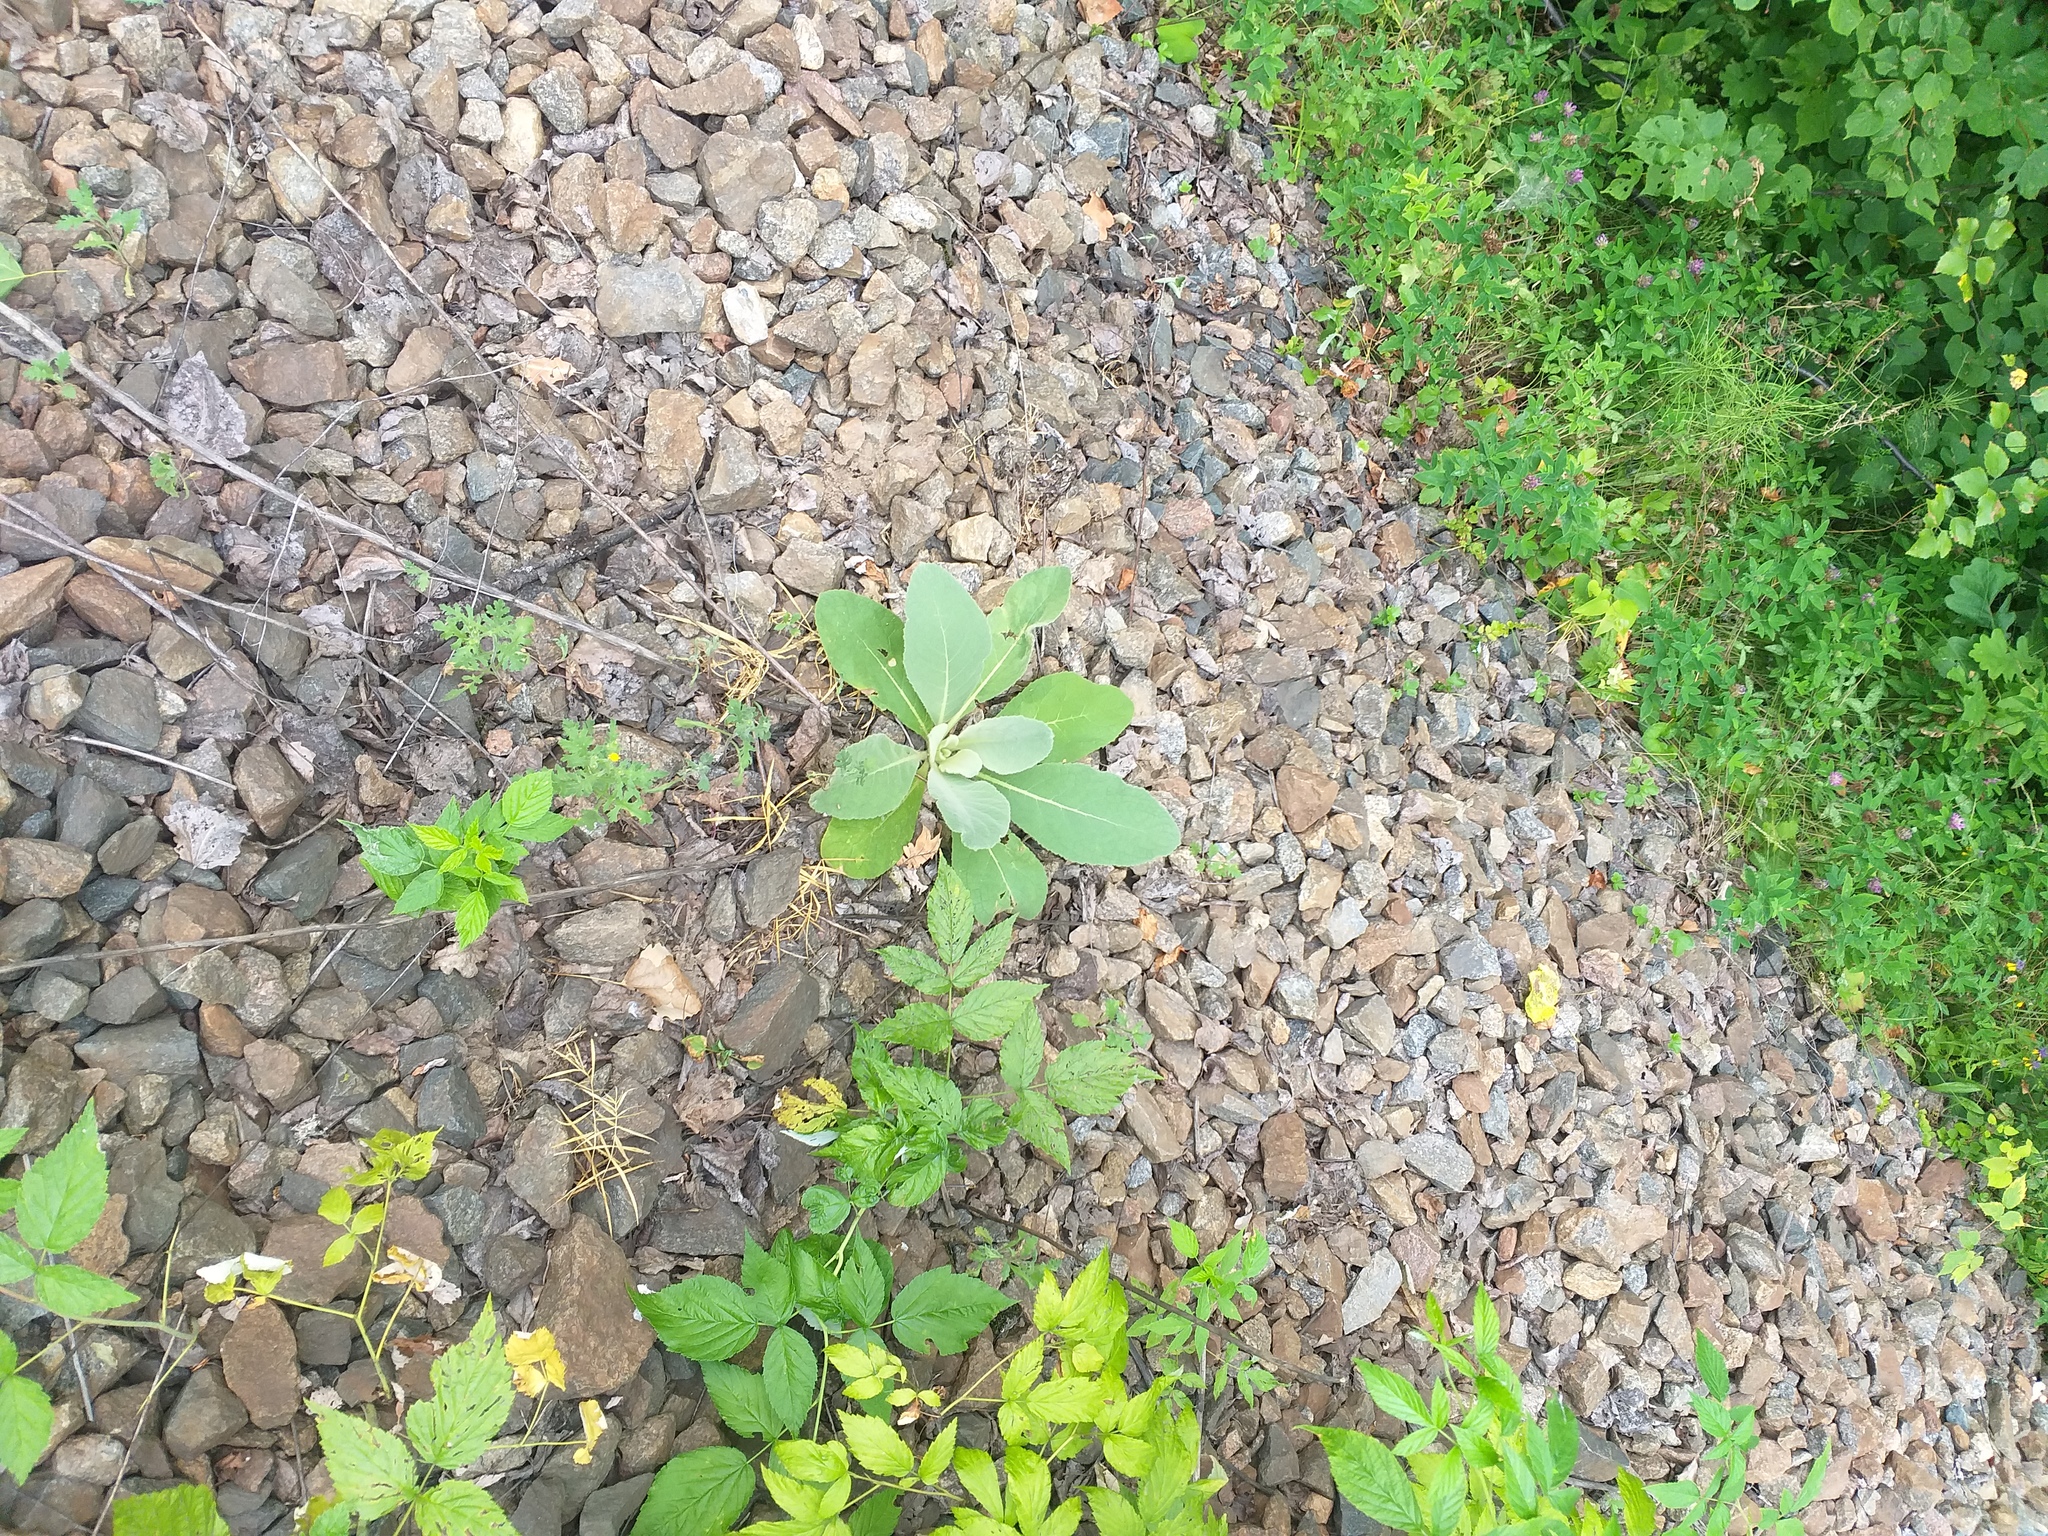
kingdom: Plantae
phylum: Tracheophyta
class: Magnoliopsida
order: Lamiales
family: Scrophulariaceae
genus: Verbascum
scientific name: Verbascum thapsus
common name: Common mullein
